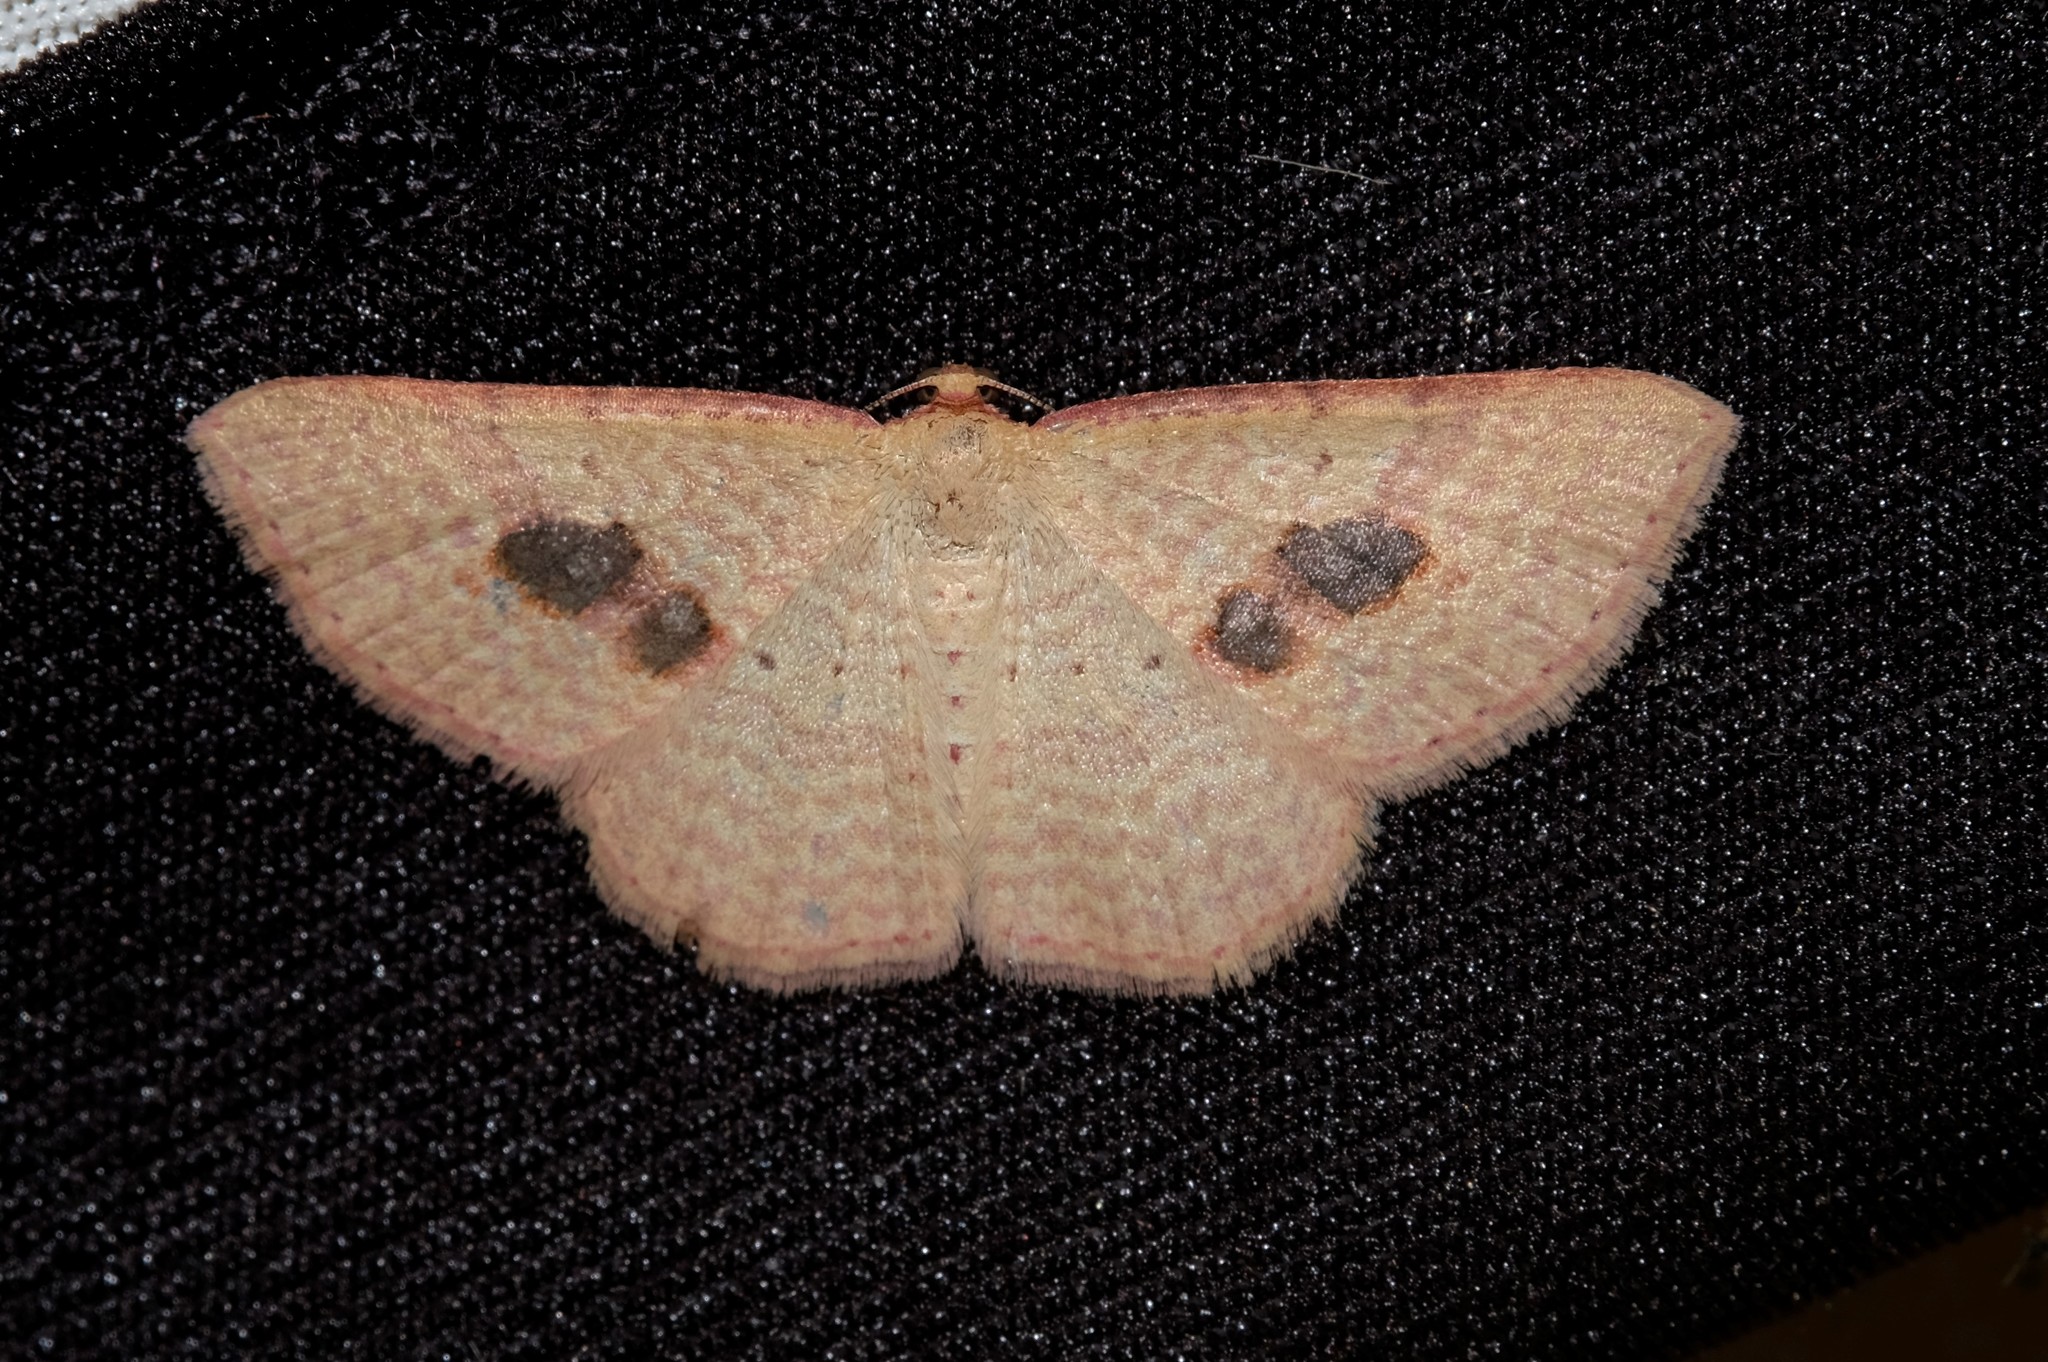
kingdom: Animalia
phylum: Arthropoda
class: Insecta
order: Lepidoptera
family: Geometridae
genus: Epicyme
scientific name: Epicyme rubropunctaria
